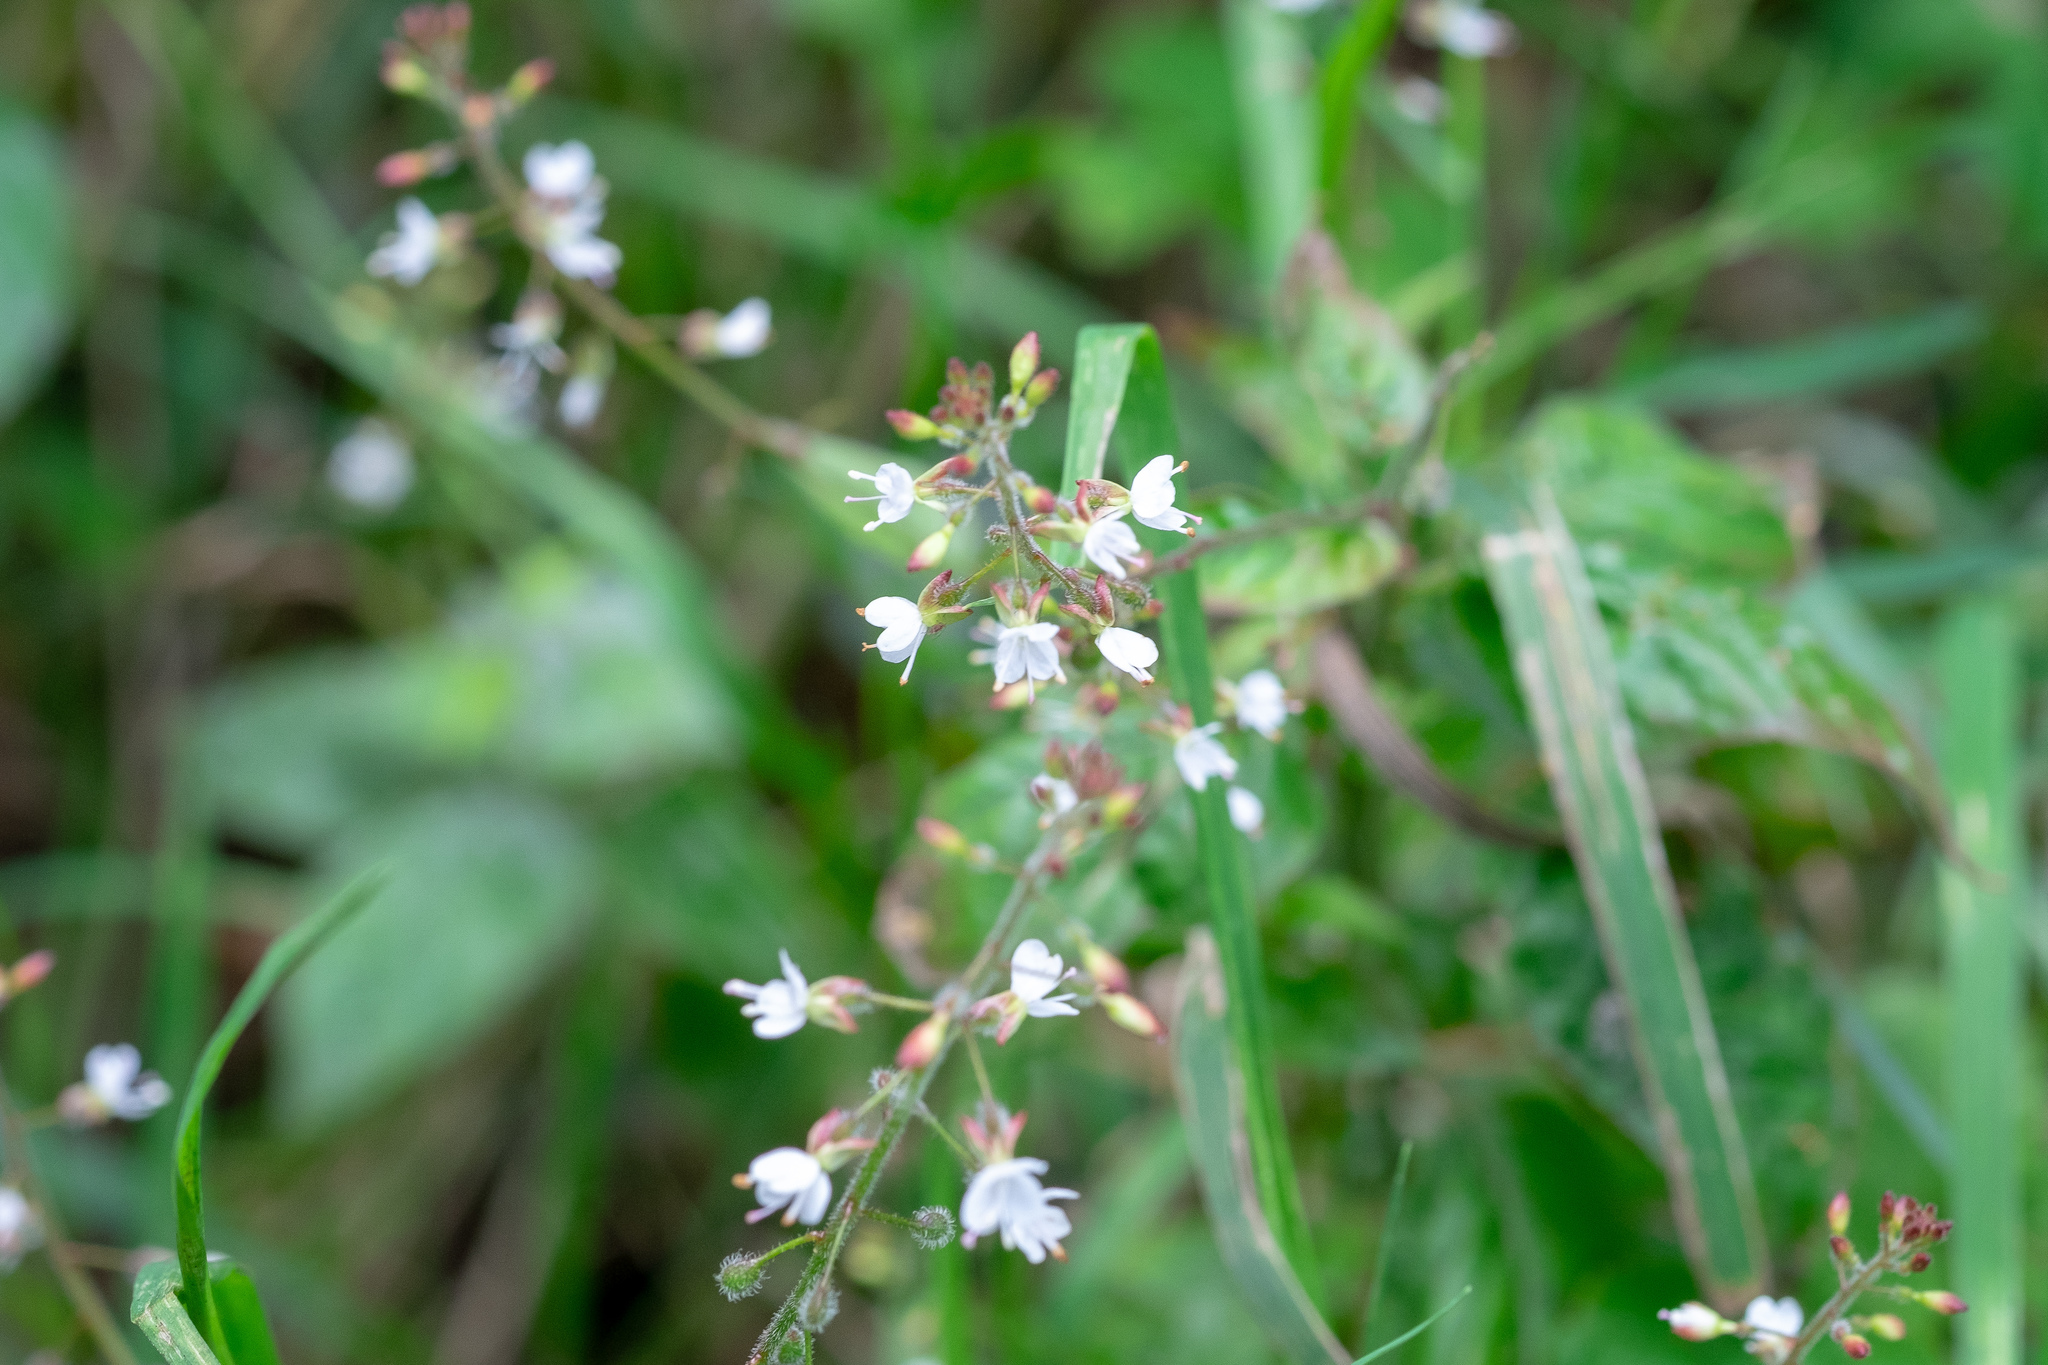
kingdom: Plantae
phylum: Tracheophyta
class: Magnoliopsida
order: Myrtales
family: Onagraceae
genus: Circaea
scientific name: Circaea lutetiana
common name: Enchanter's-nightshade
